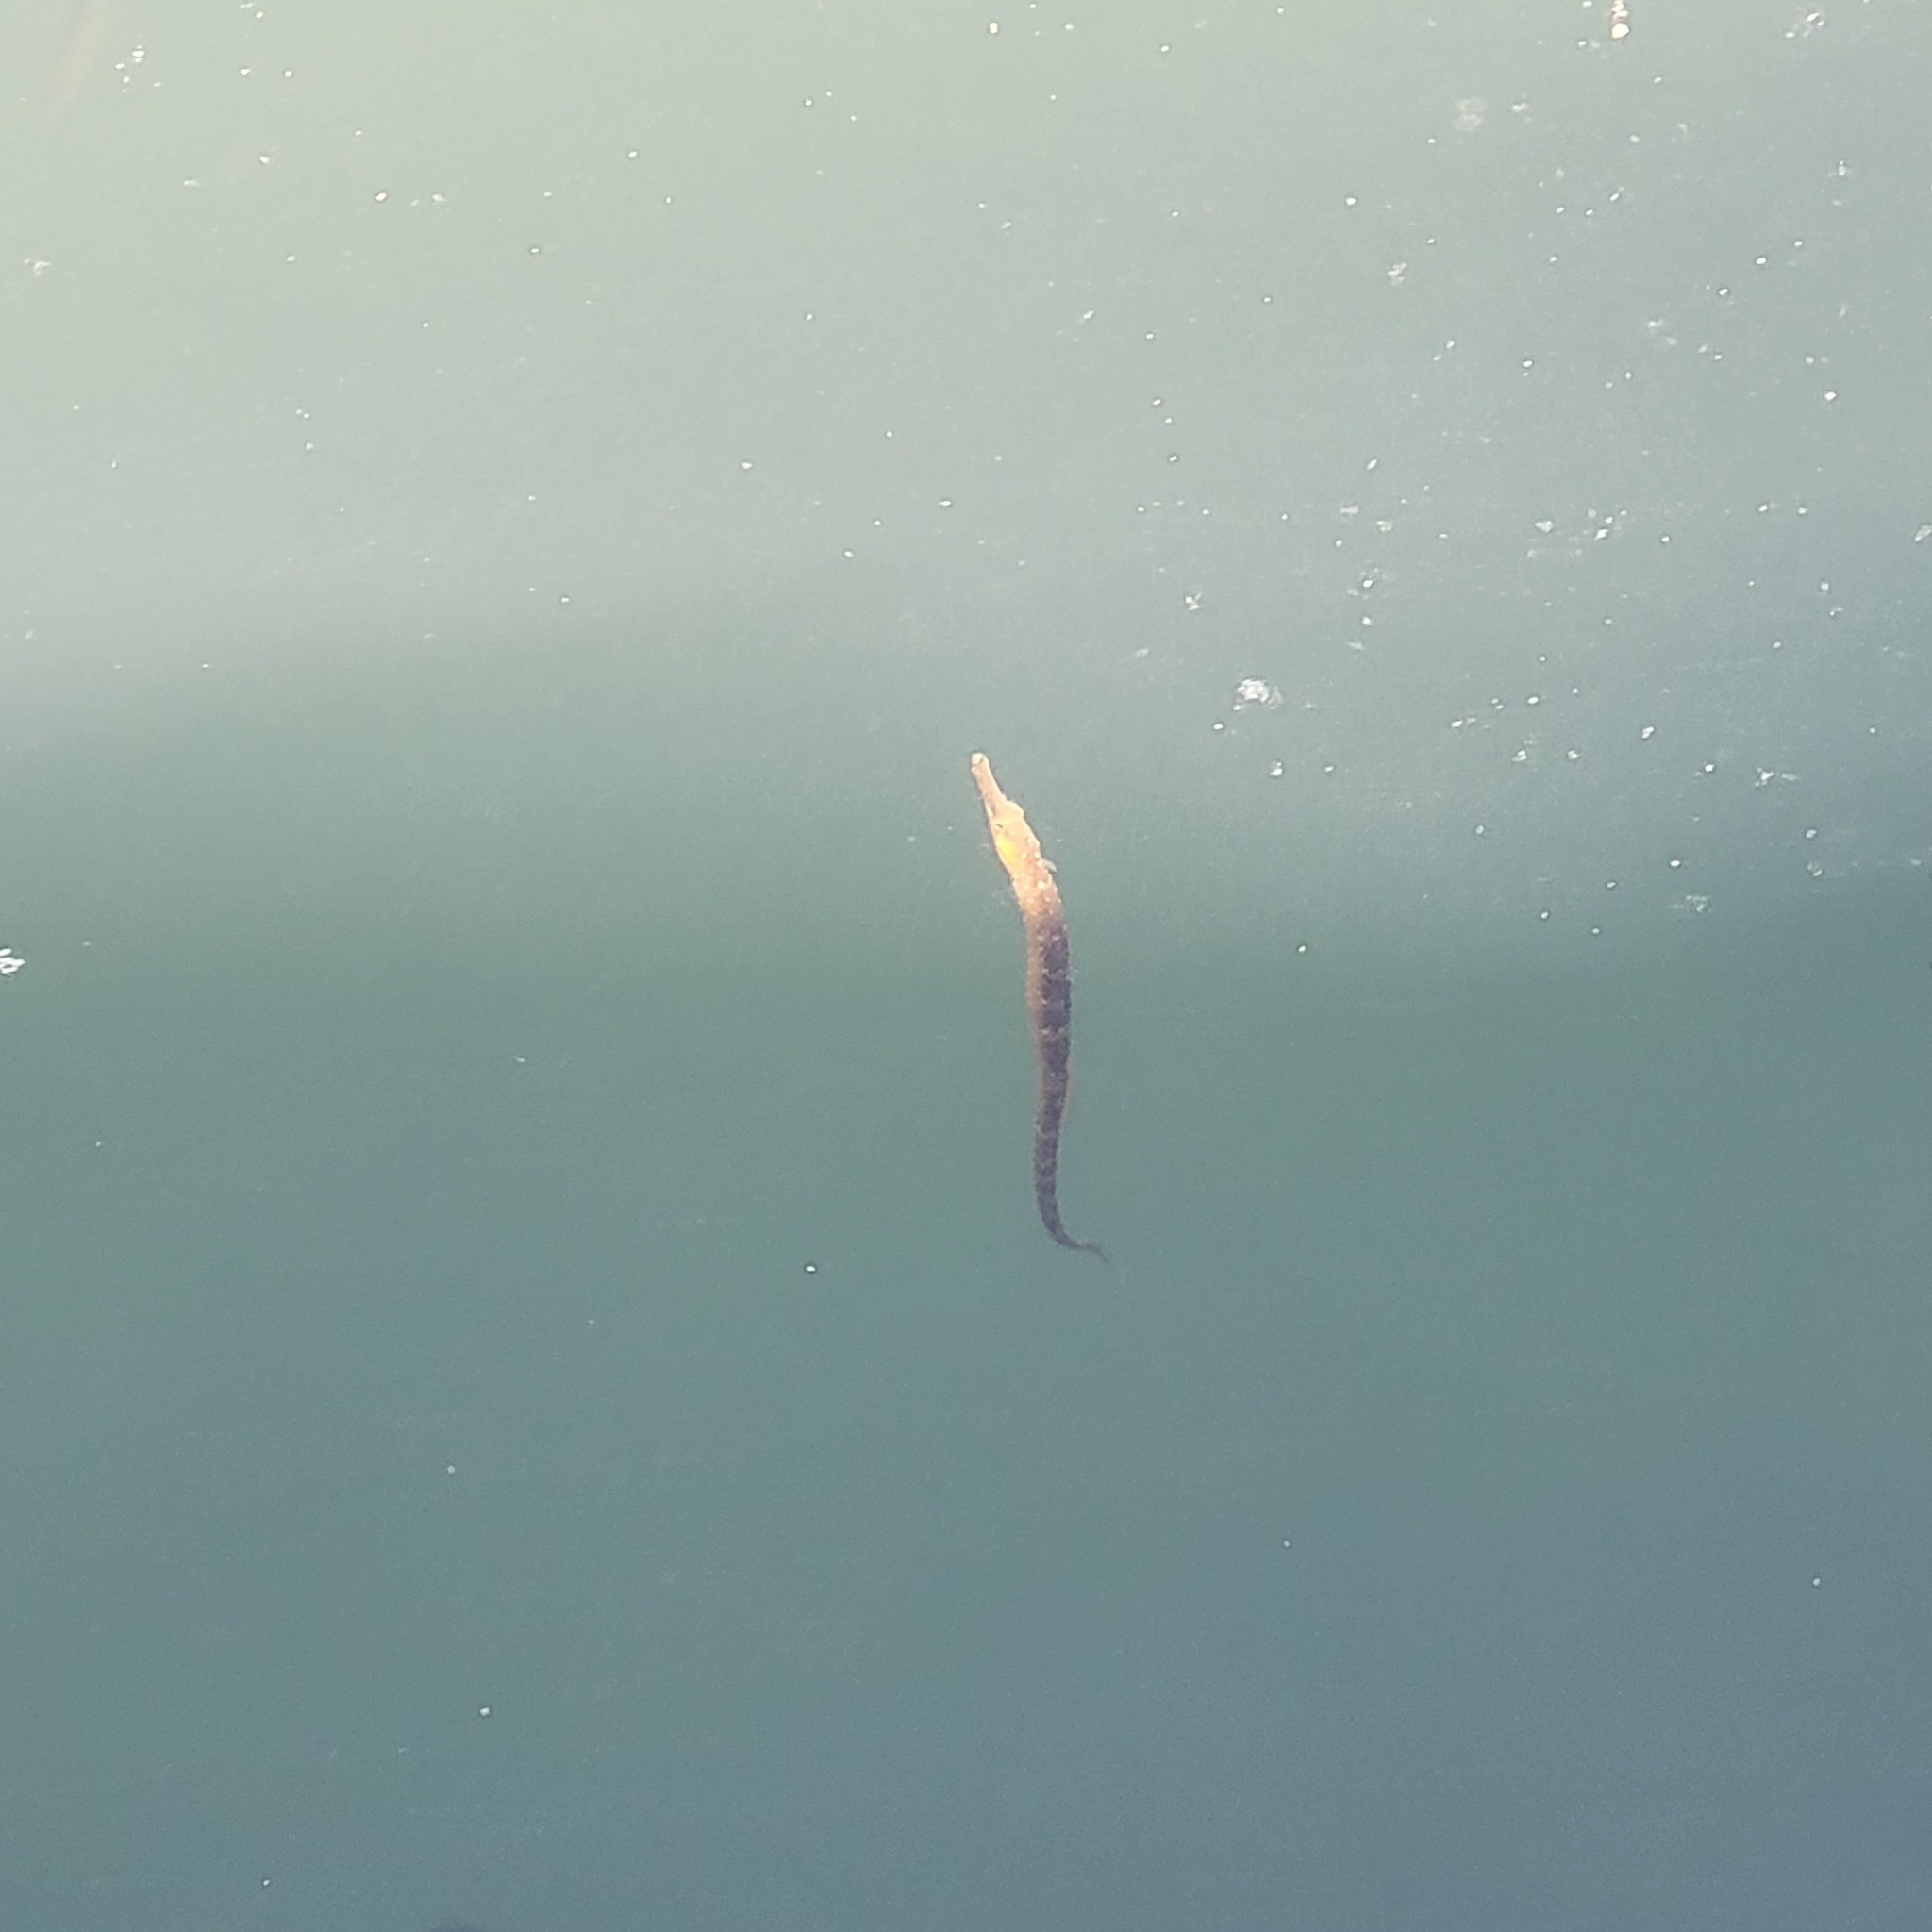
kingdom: Animalia
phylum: Chordata
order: Syngnathiformes
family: Syngnathidae
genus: Syngnathus
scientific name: Syngnathus californiensis
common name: Great pipefish
